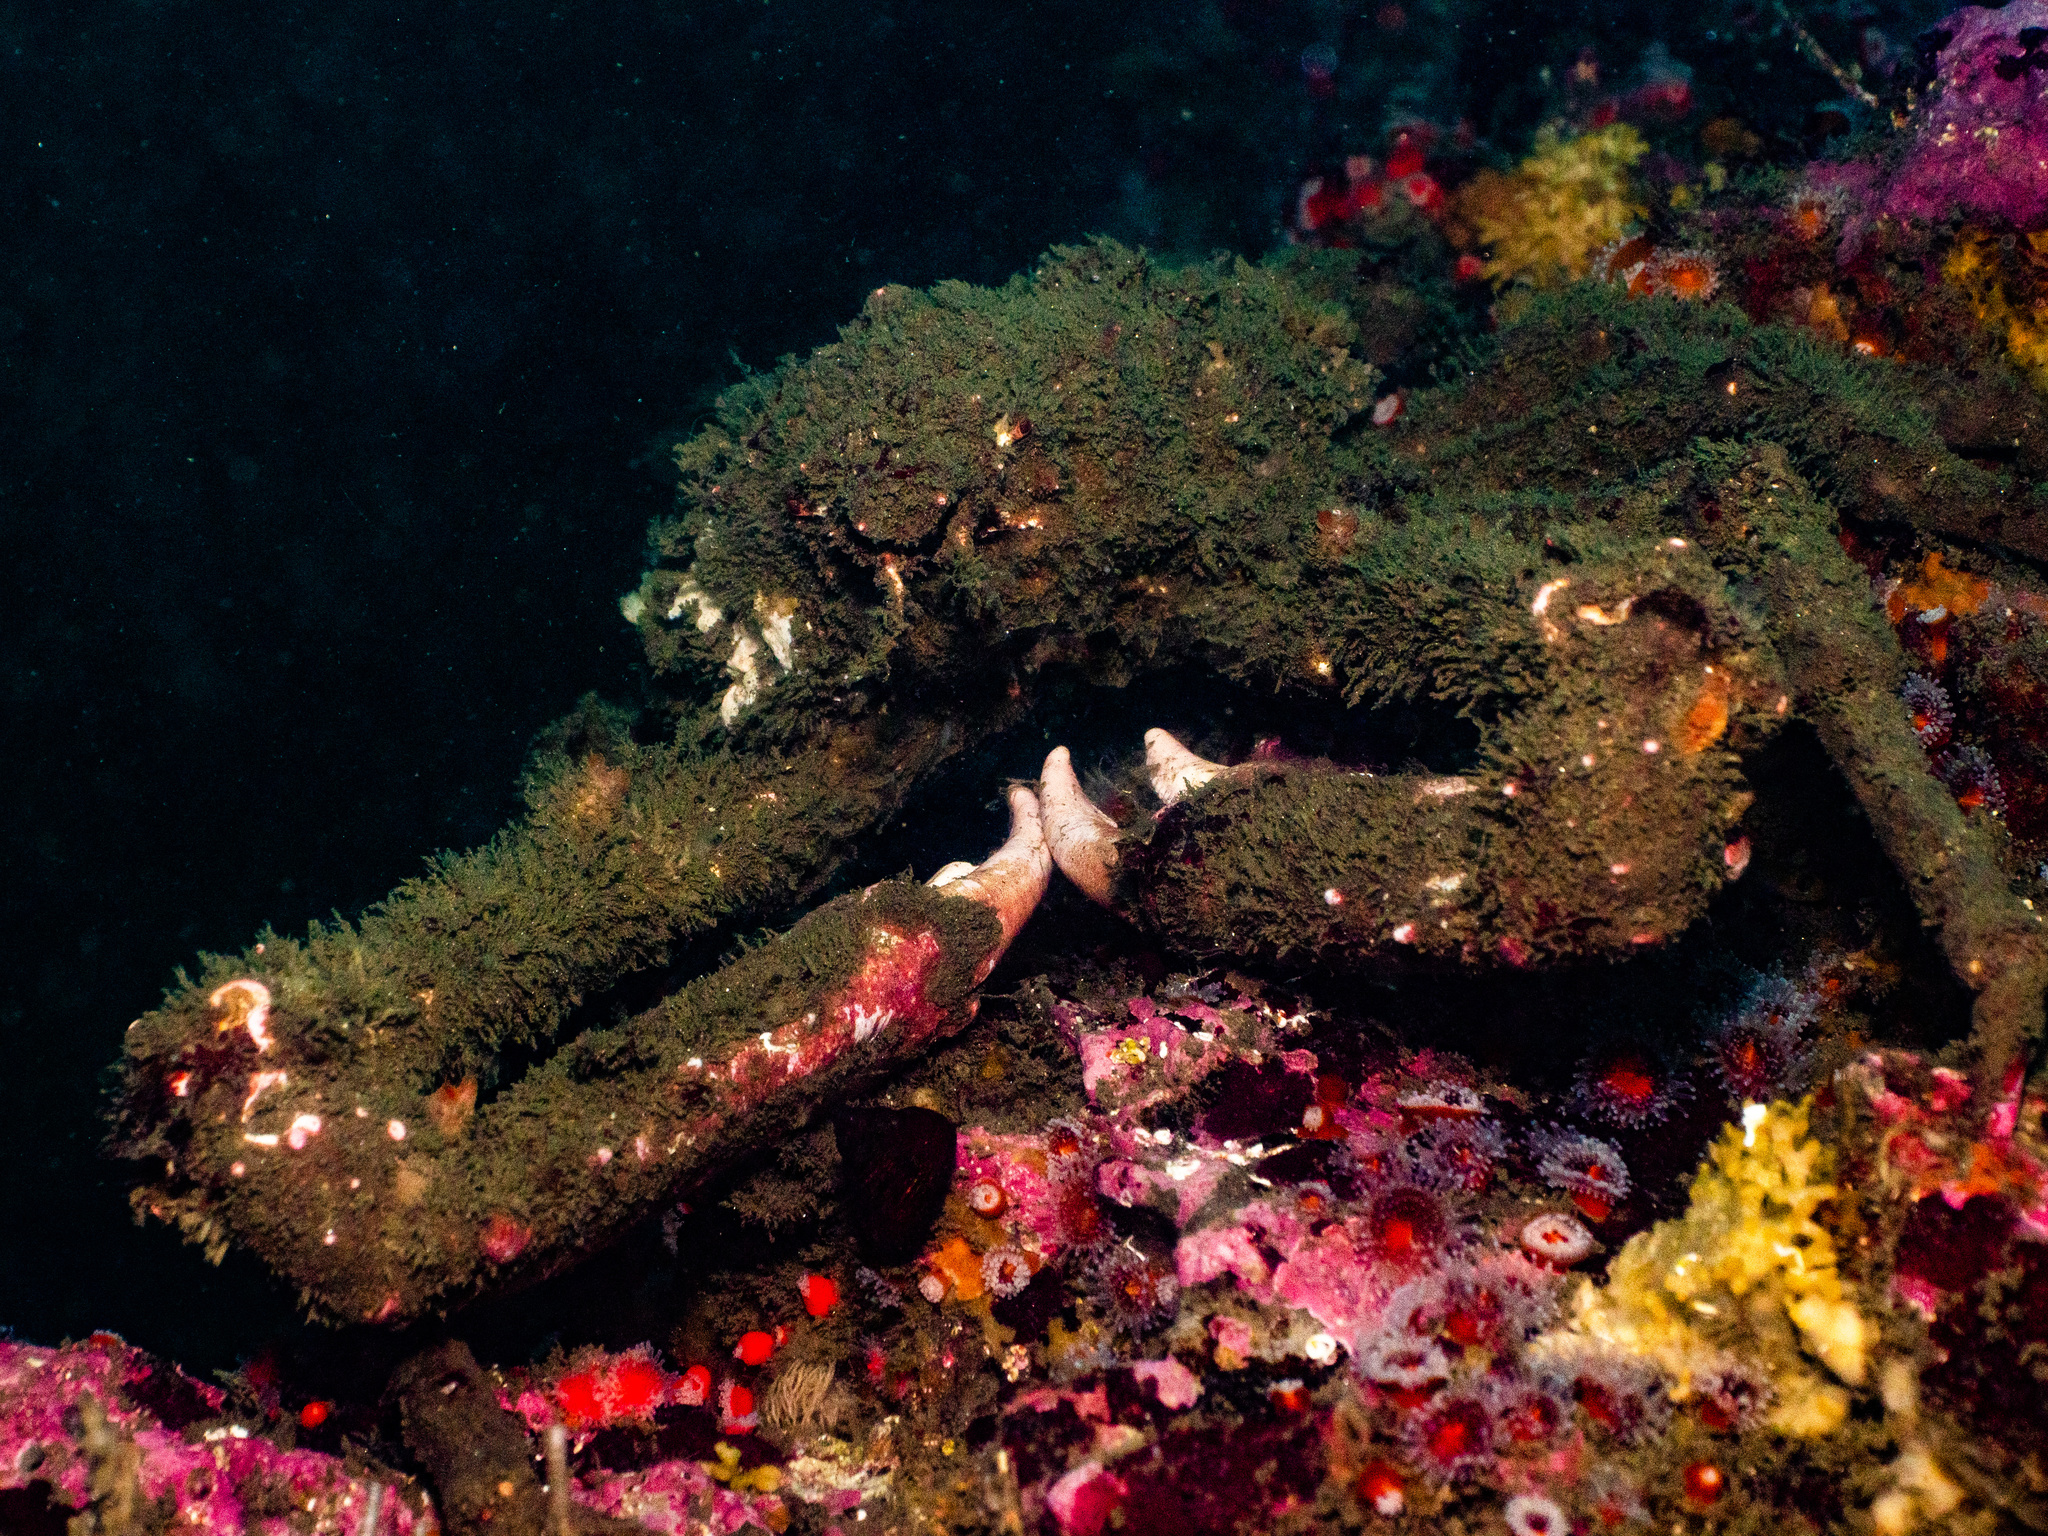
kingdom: Animalia
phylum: Arthropoda
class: Malacostraca
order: Decapoda
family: Epialtidae
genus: Loxorhynchus
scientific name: Loxorhynchus grandis
